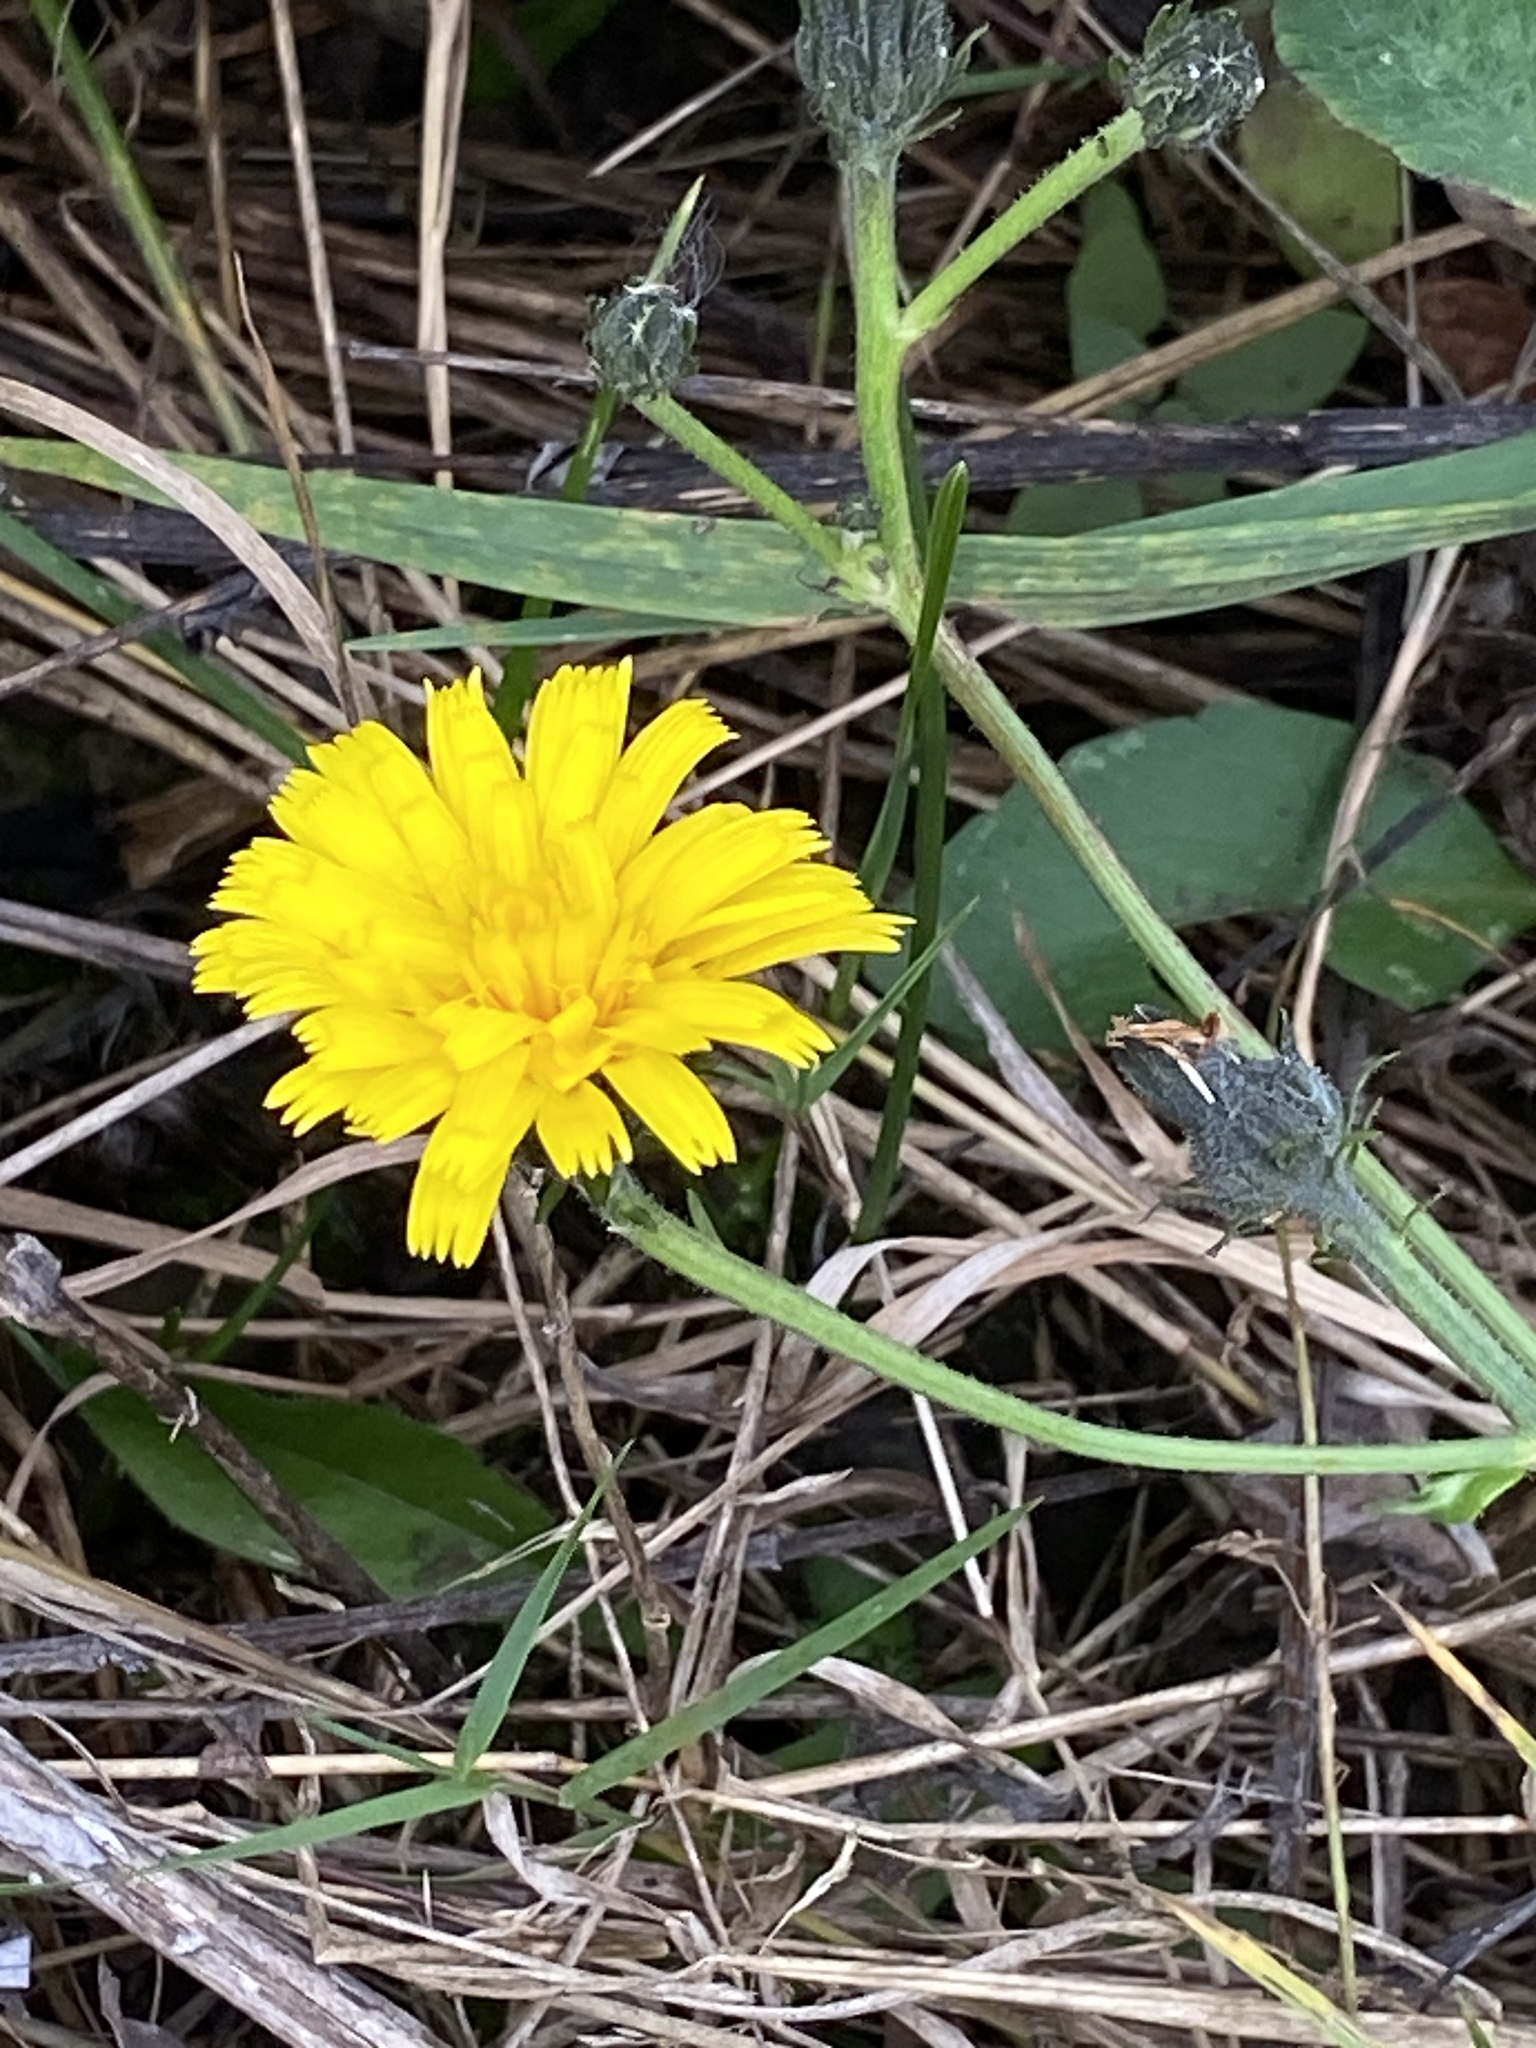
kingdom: Plantae
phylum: Tracheophyta
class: Magnoliopsida
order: Asterales
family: Asteraceae
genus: Picris
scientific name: Picris hieracioides
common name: Hawkweed oxtongue
